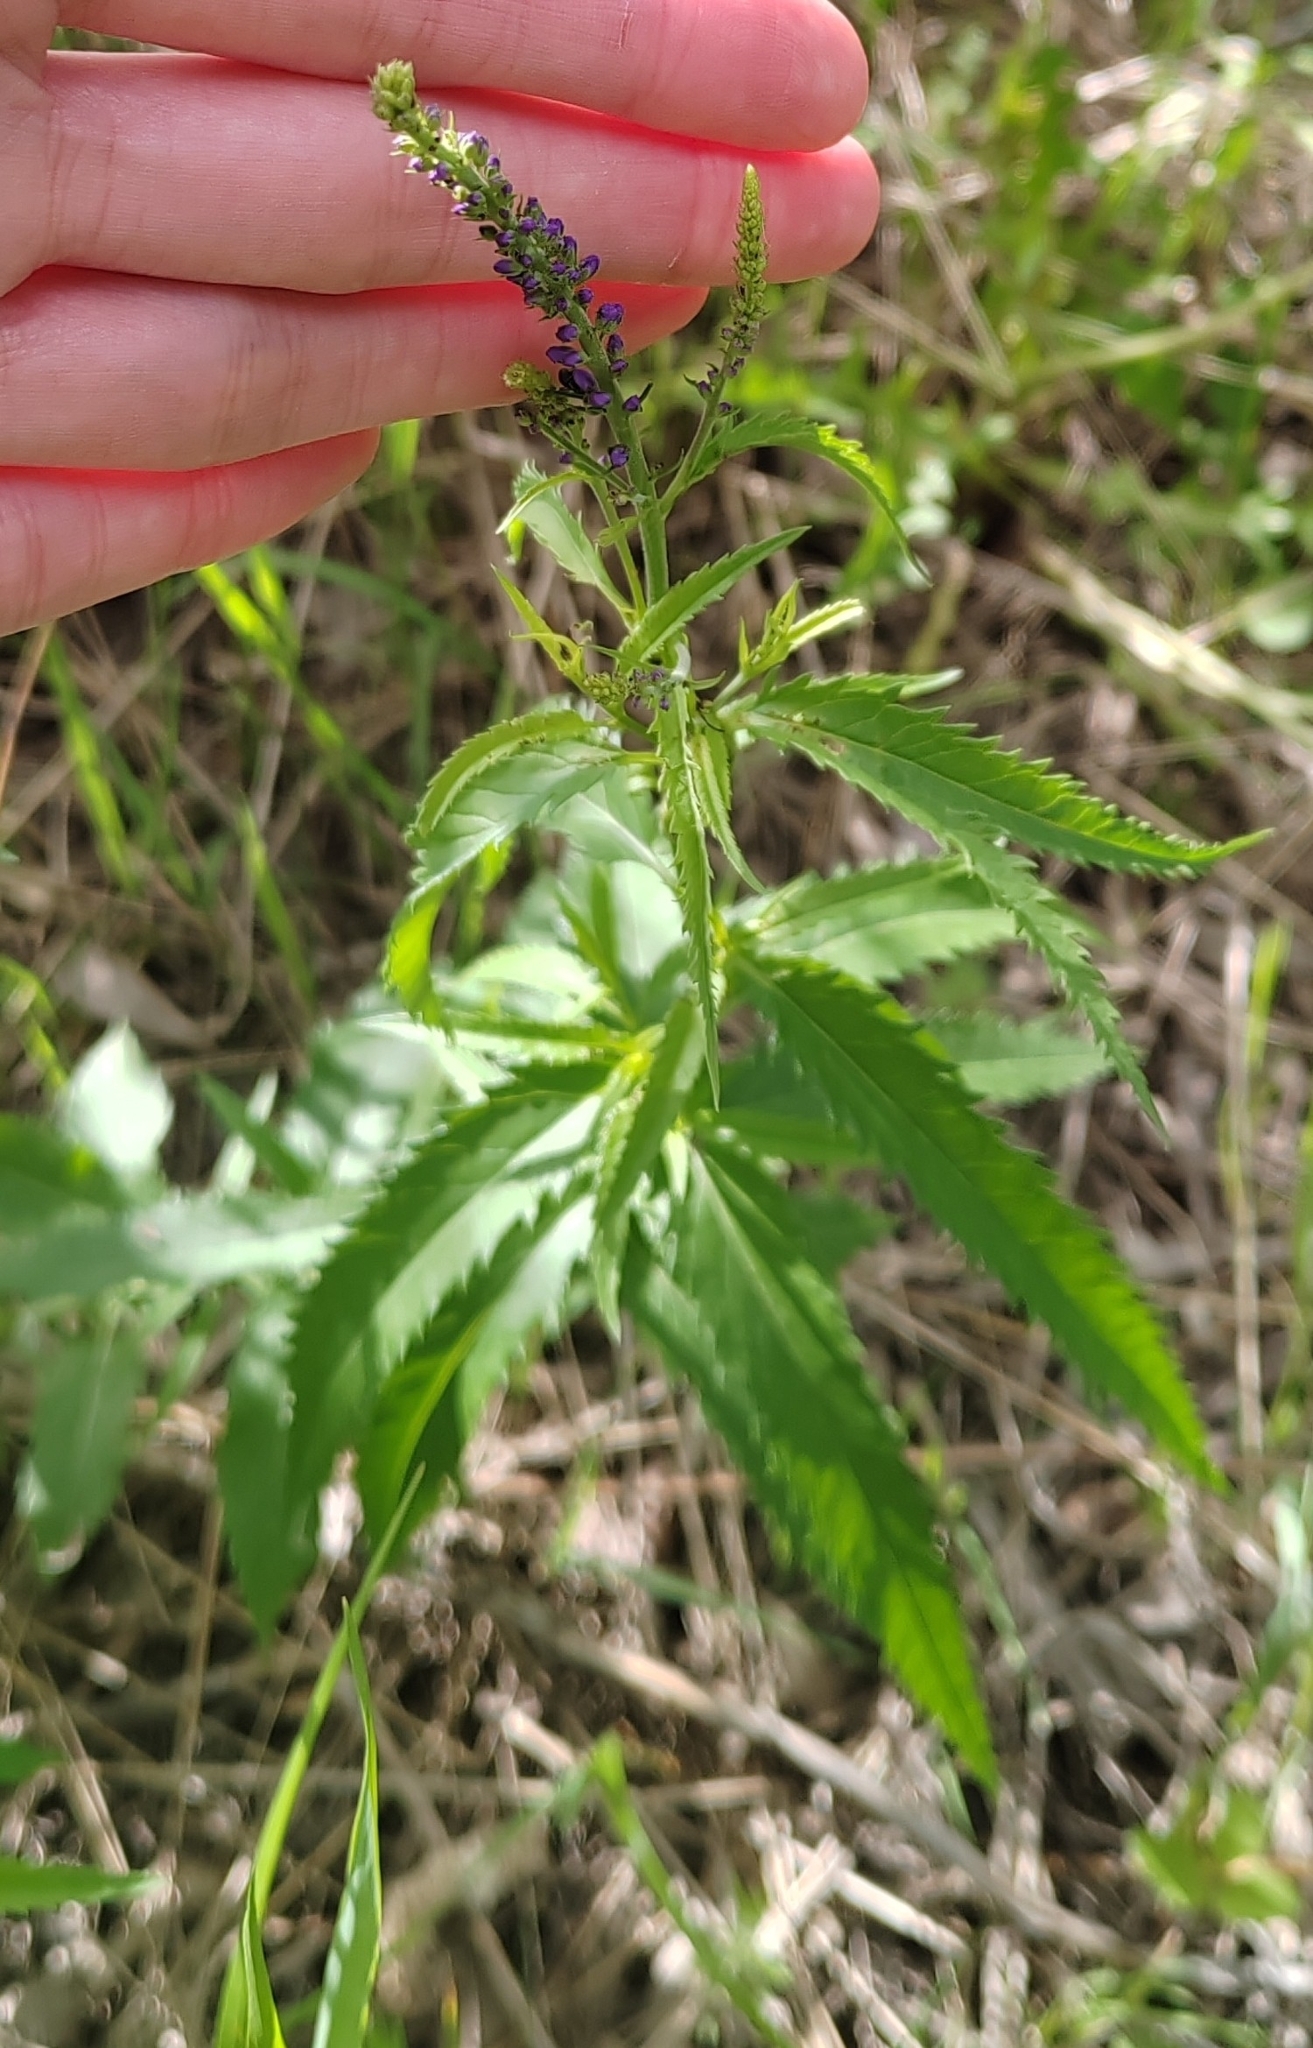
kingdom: Plantae
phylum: Tracheophyta
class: Magnoliopsida
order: Lamiales
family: Plantaginaceae
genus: Veronica
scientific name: Veronica longifolia
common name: Garden speedwell
